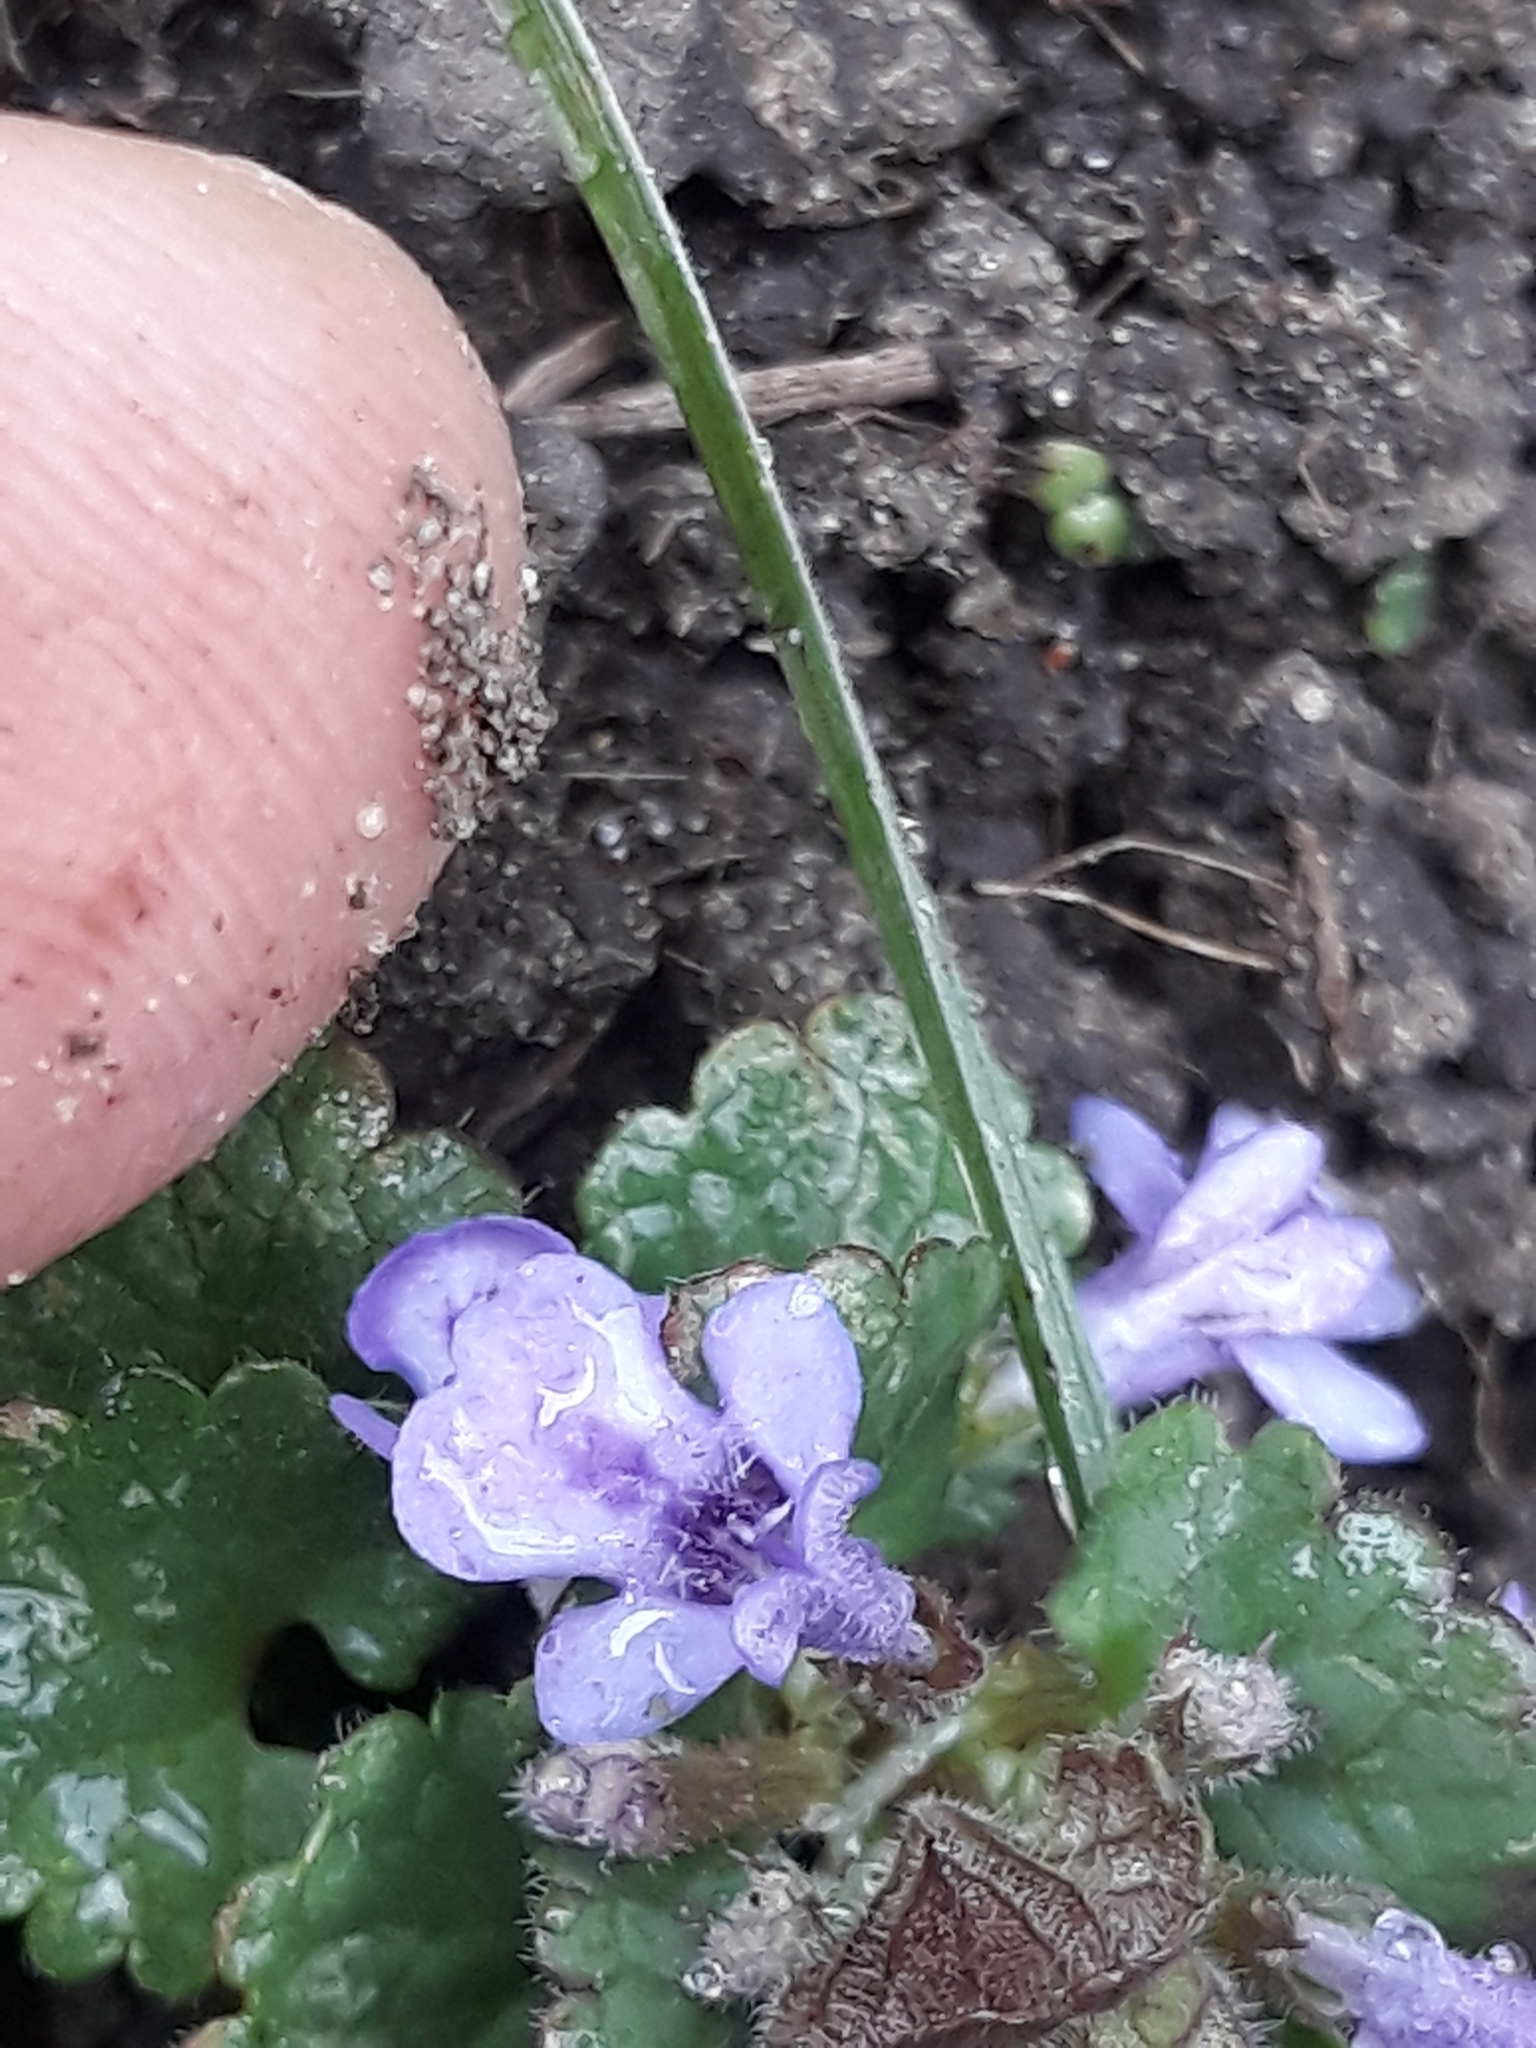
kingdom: Plantae
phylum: Tracheophyta
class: Magnoliopsida
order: Lamiales
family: Lamiaceae
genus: Glechoma
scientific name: Glechoma hederacea
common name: Ground ivy
